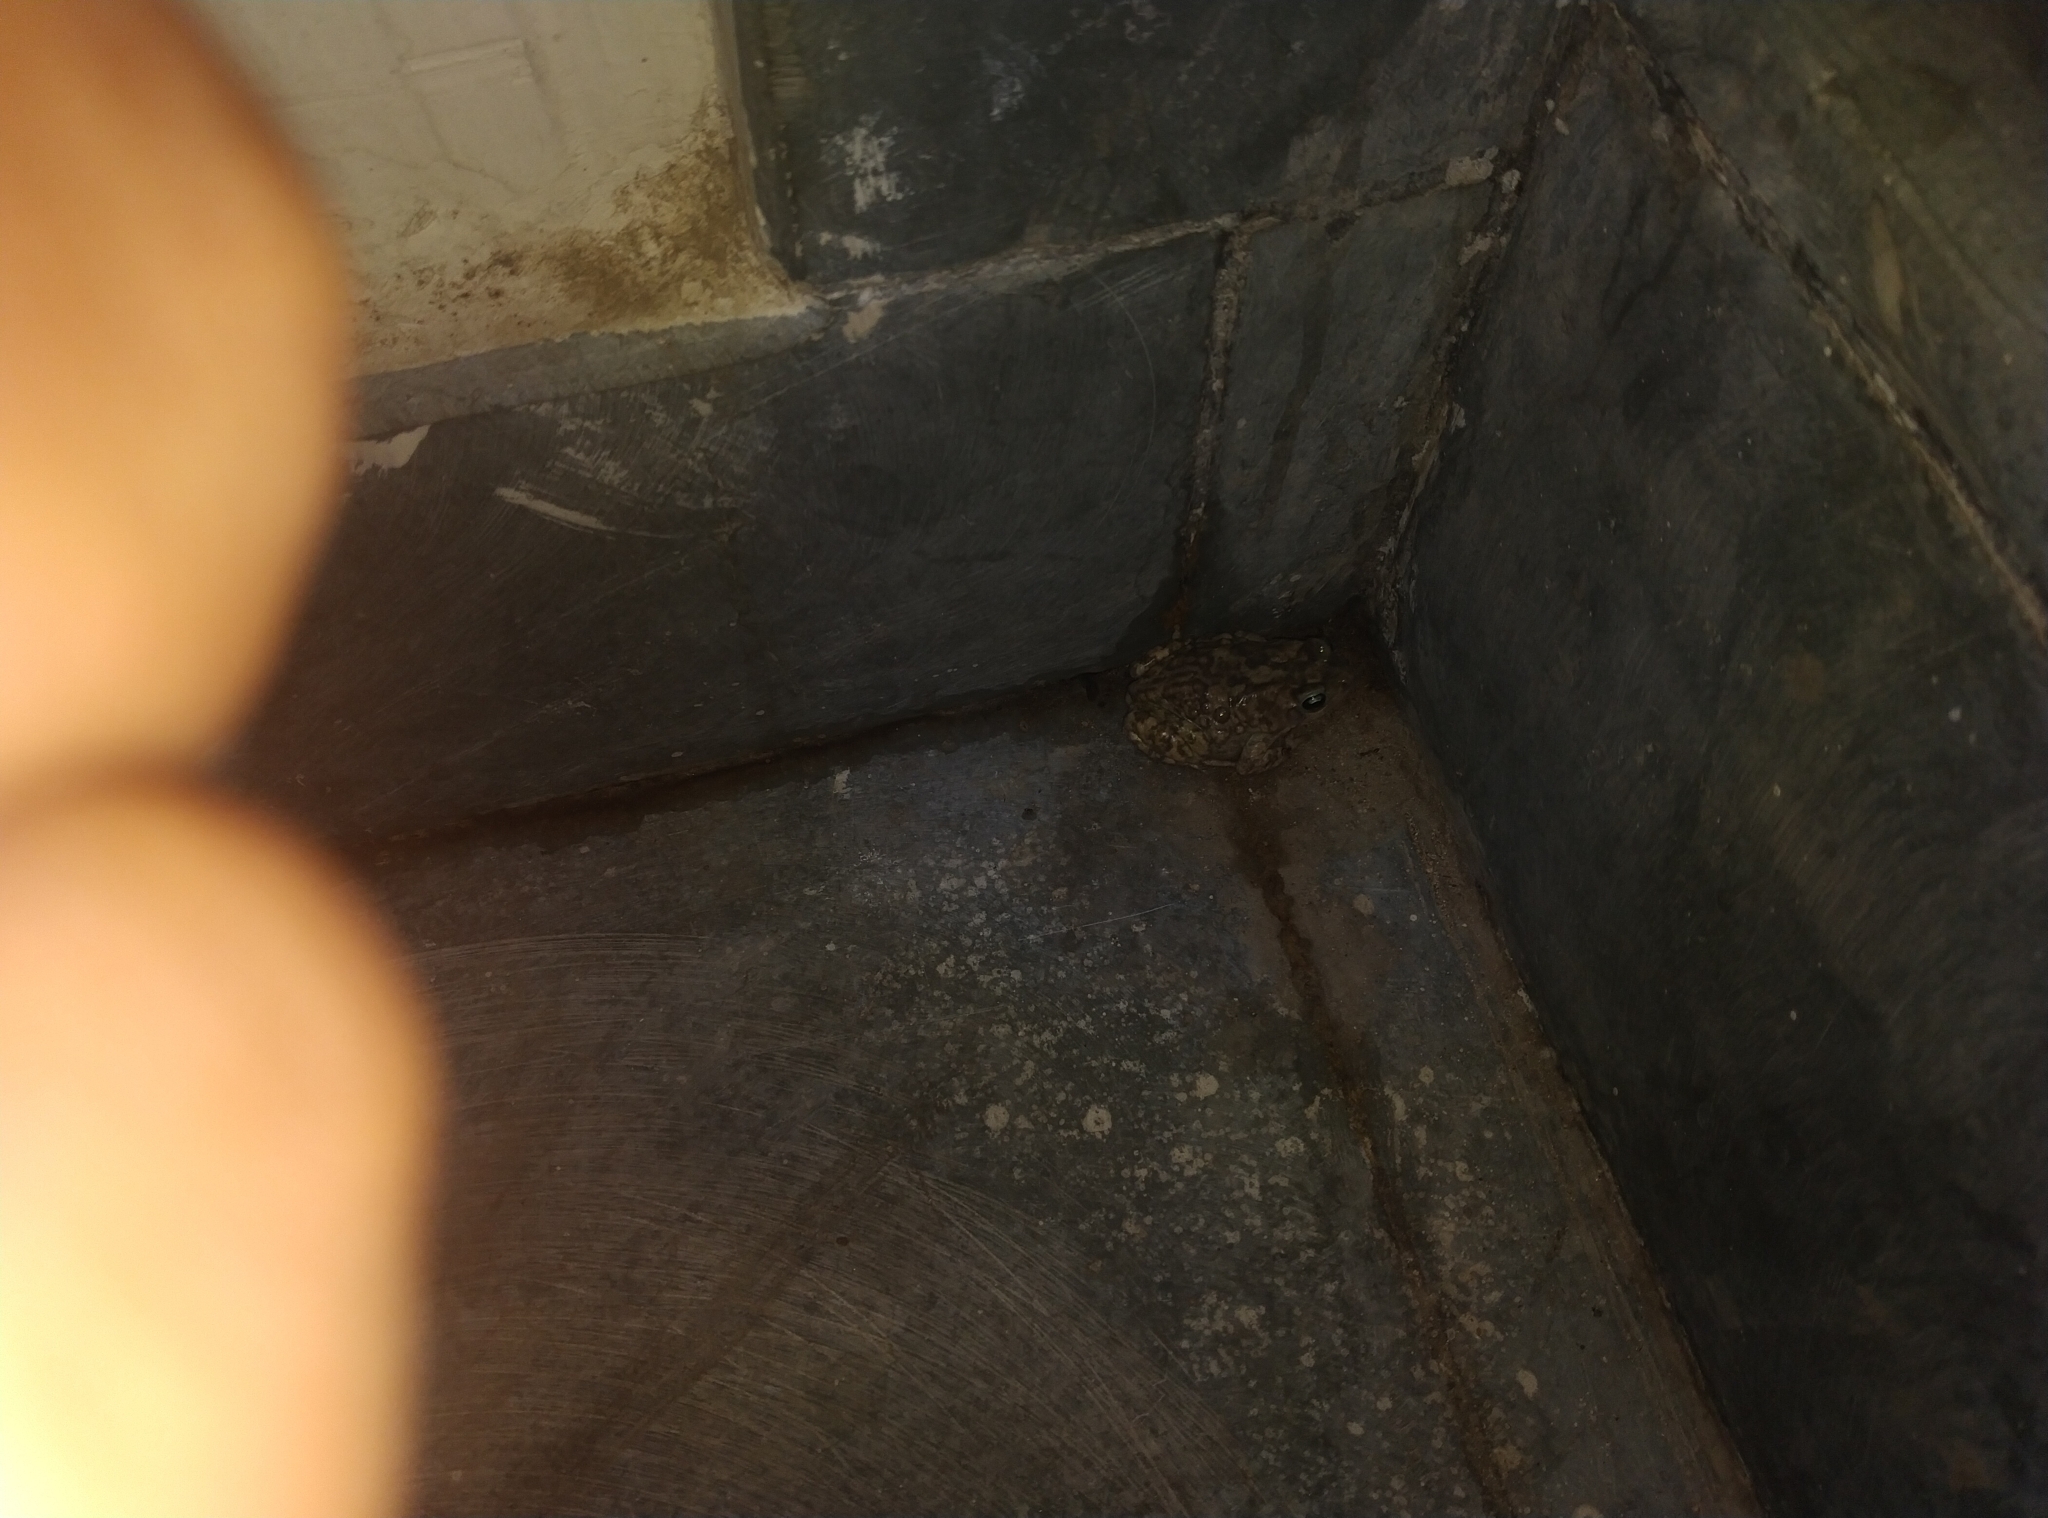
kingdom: Animalia
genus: Firouzophrynus
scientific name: Firouzophrynus
